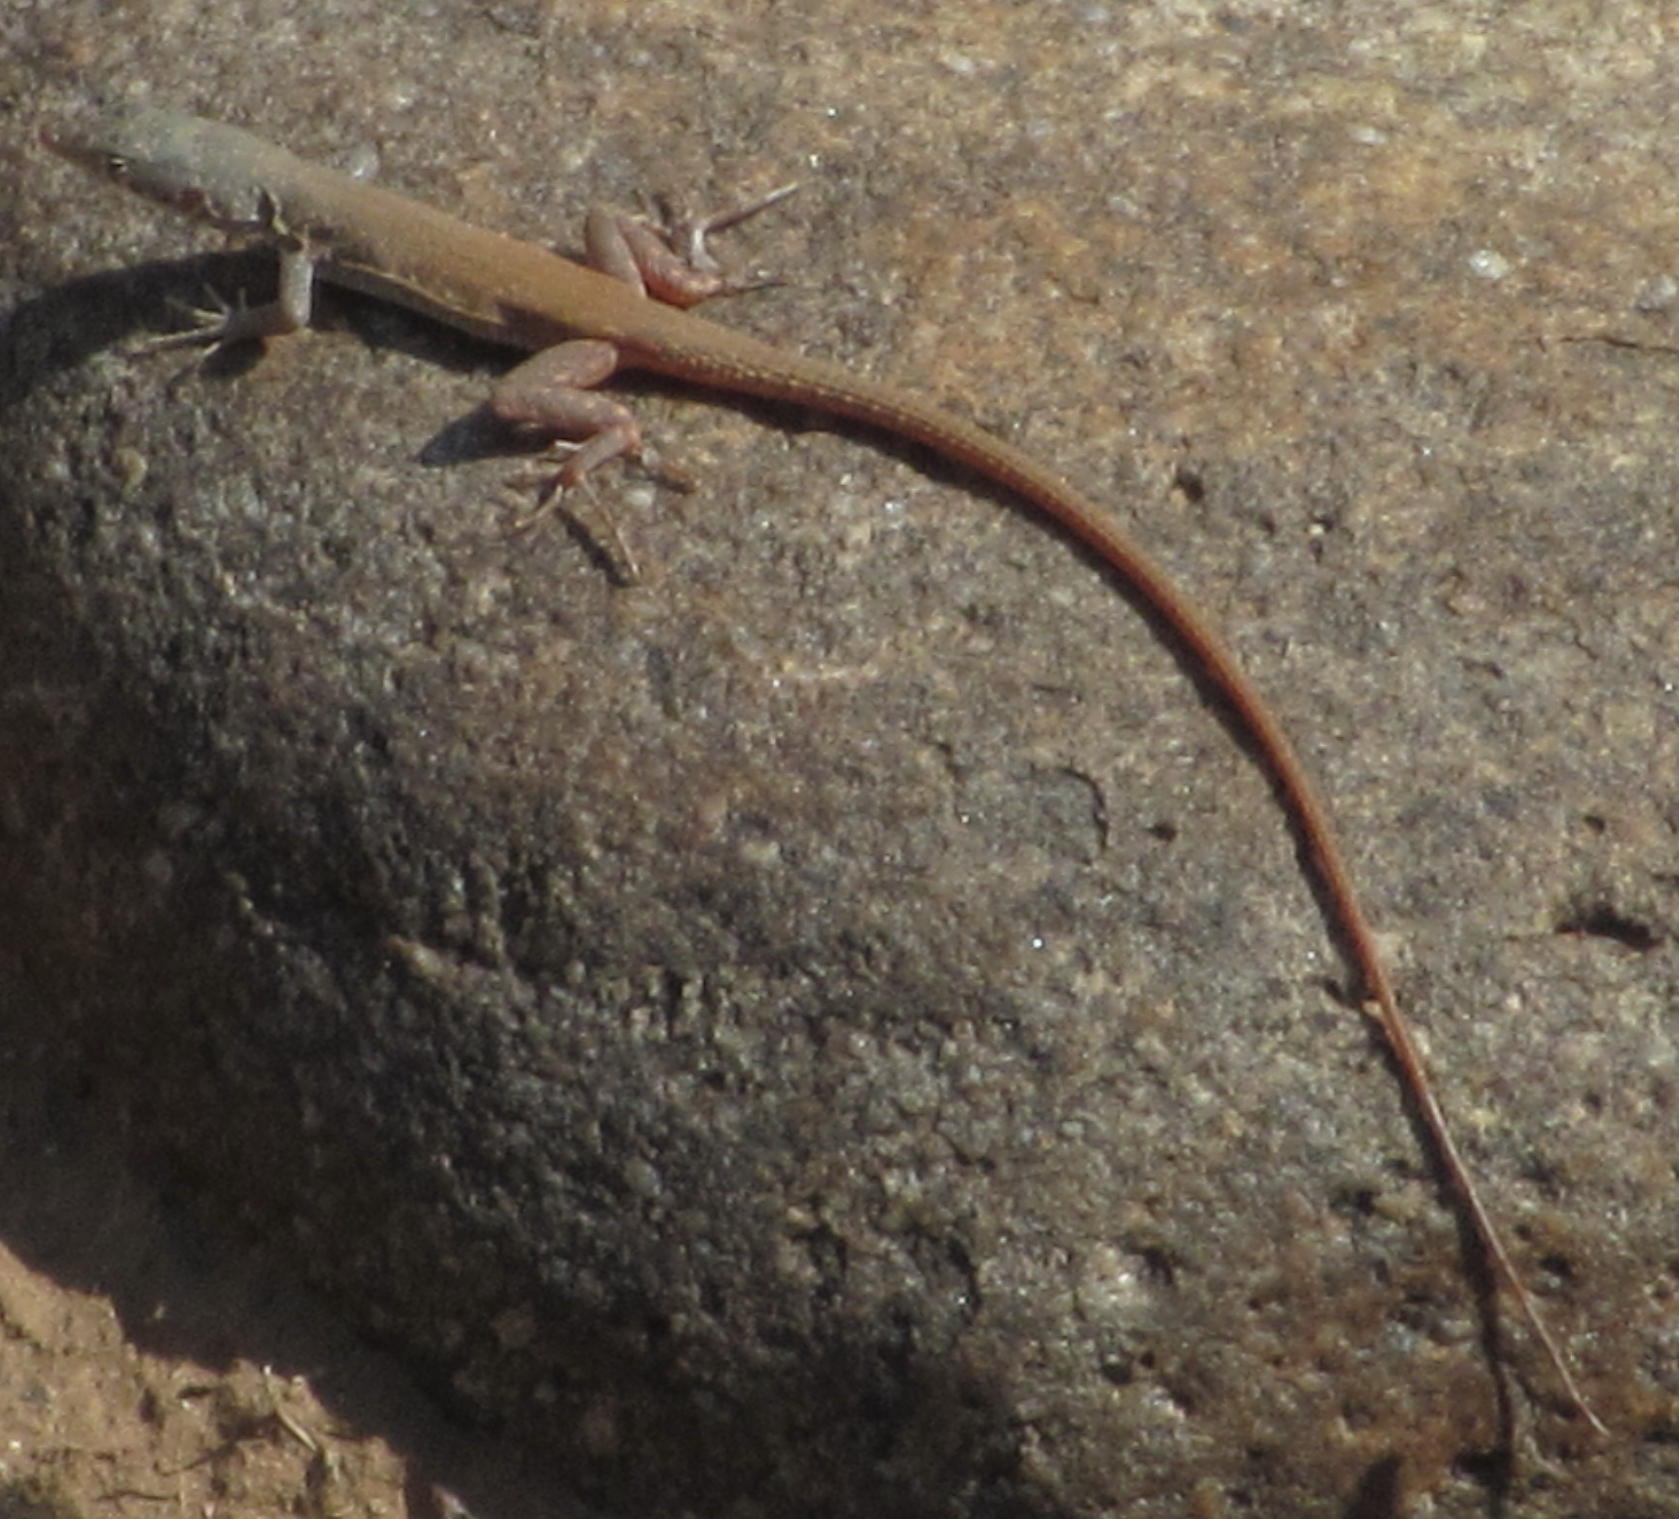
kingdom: Animalia
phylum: Chordata
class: Squamata
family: Lacertidae
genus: Pedioplanis
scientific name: Pedioplanis inornata
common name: Plain sand lizard
